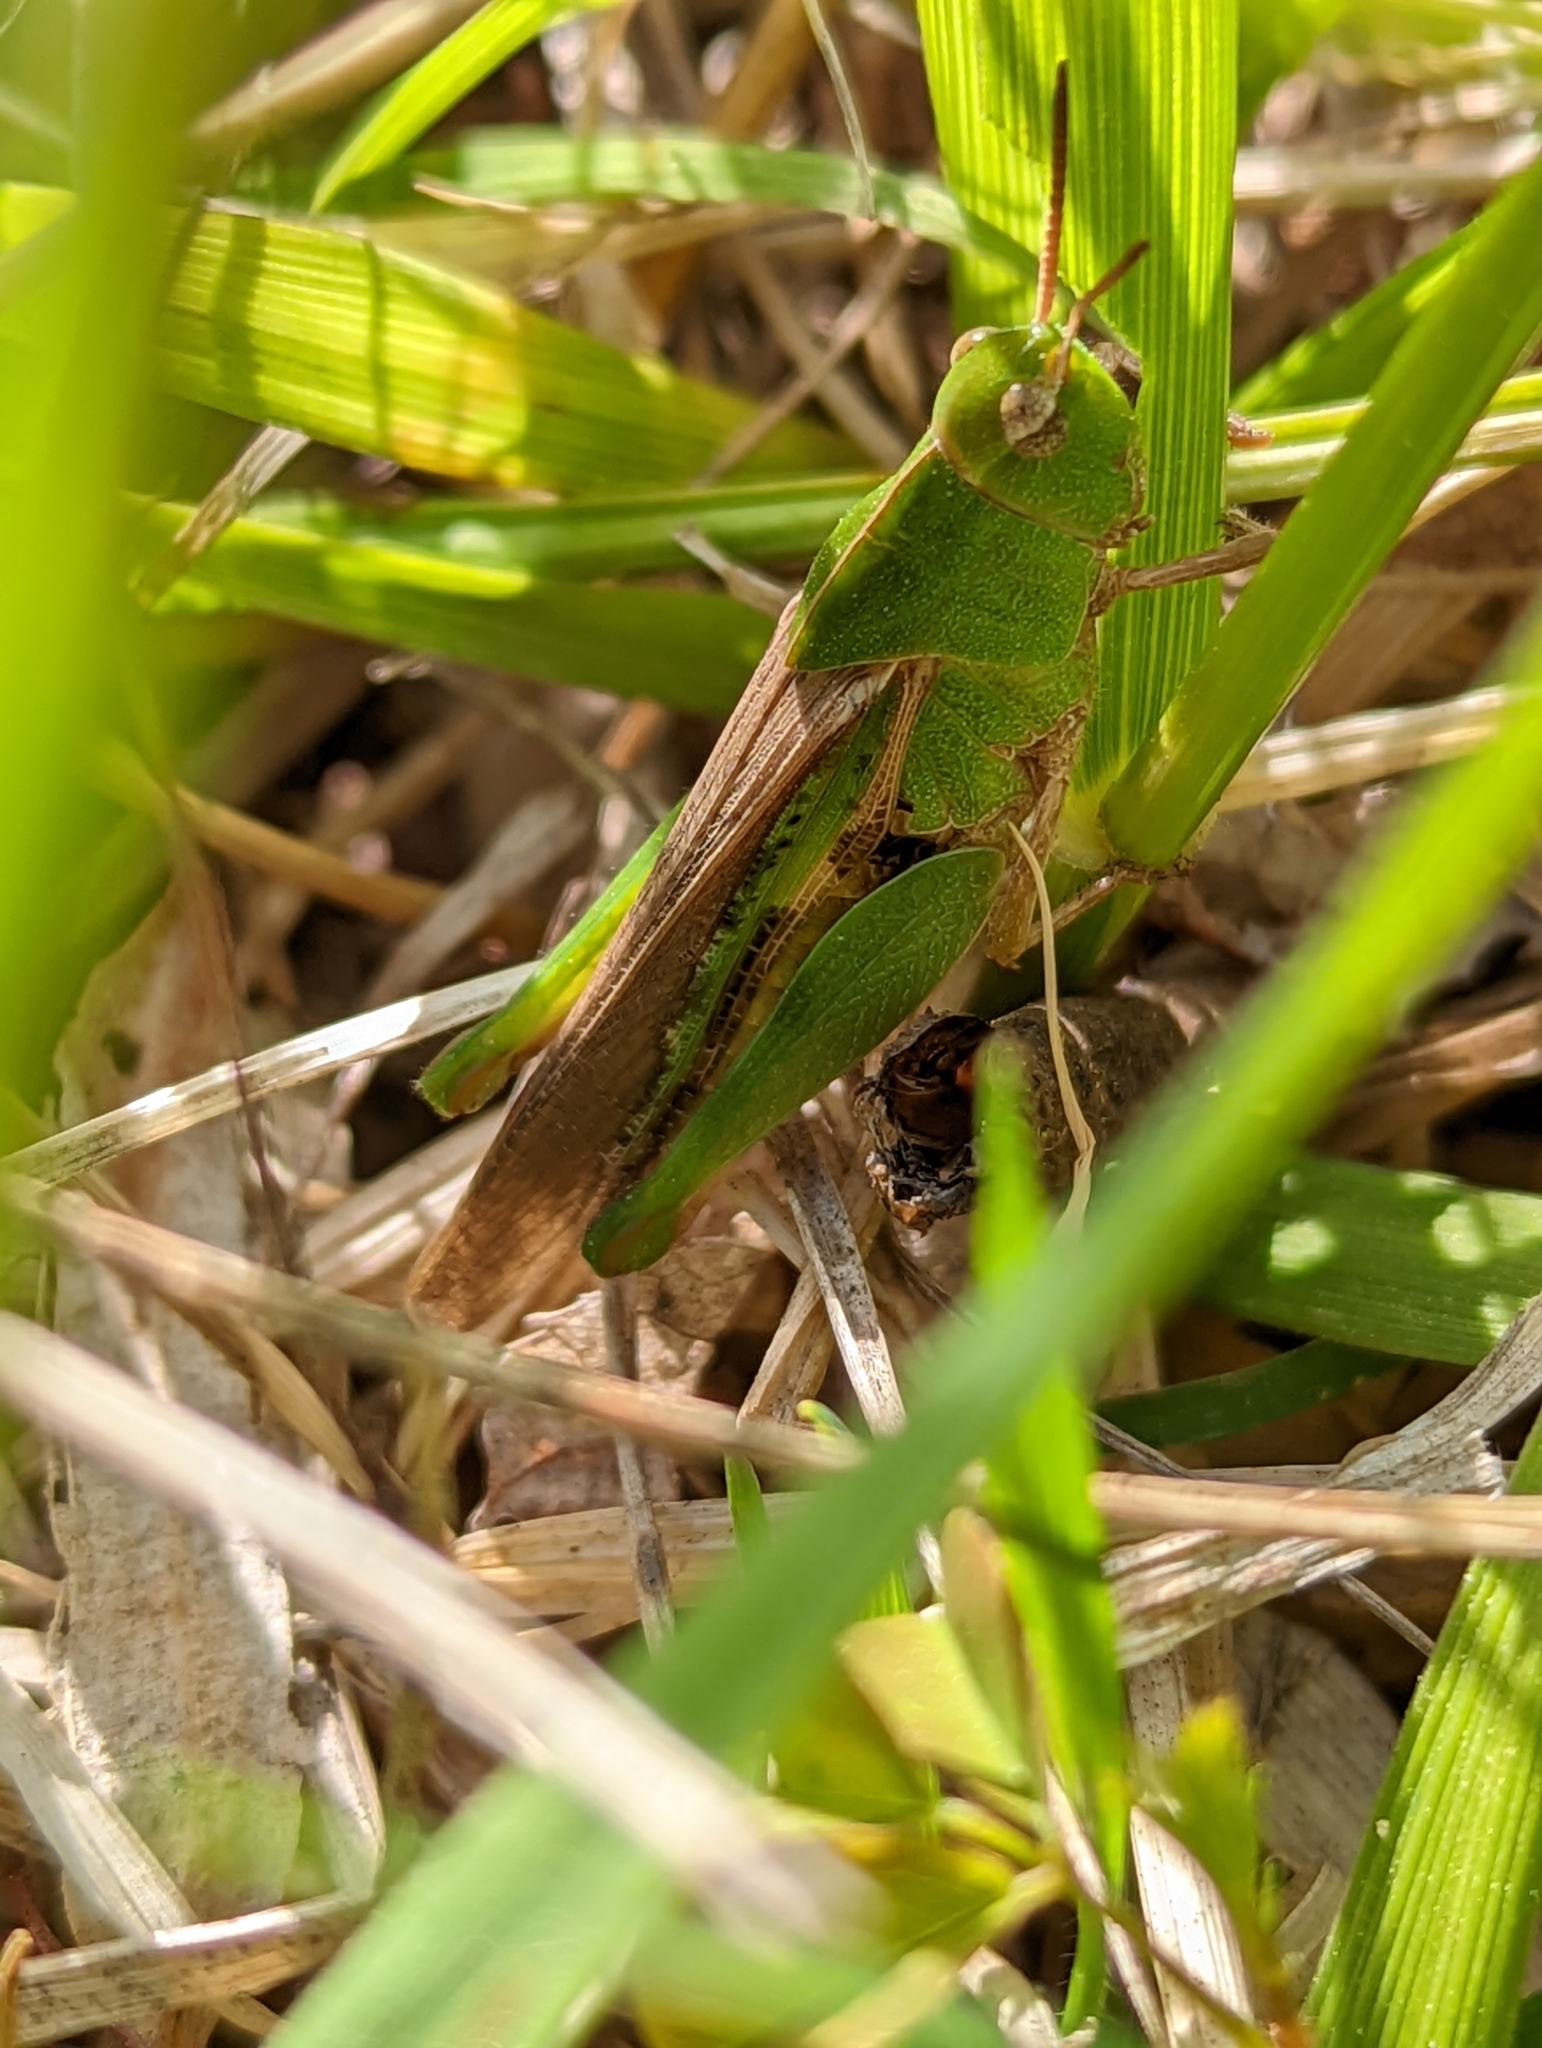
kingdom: Animalia
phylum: Arthropoda
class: Insecta
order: Orthoptera
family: Acrididae
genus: Chortophaga
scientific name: Chortophaga viridifasciata
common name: Green-striped grasshopper
